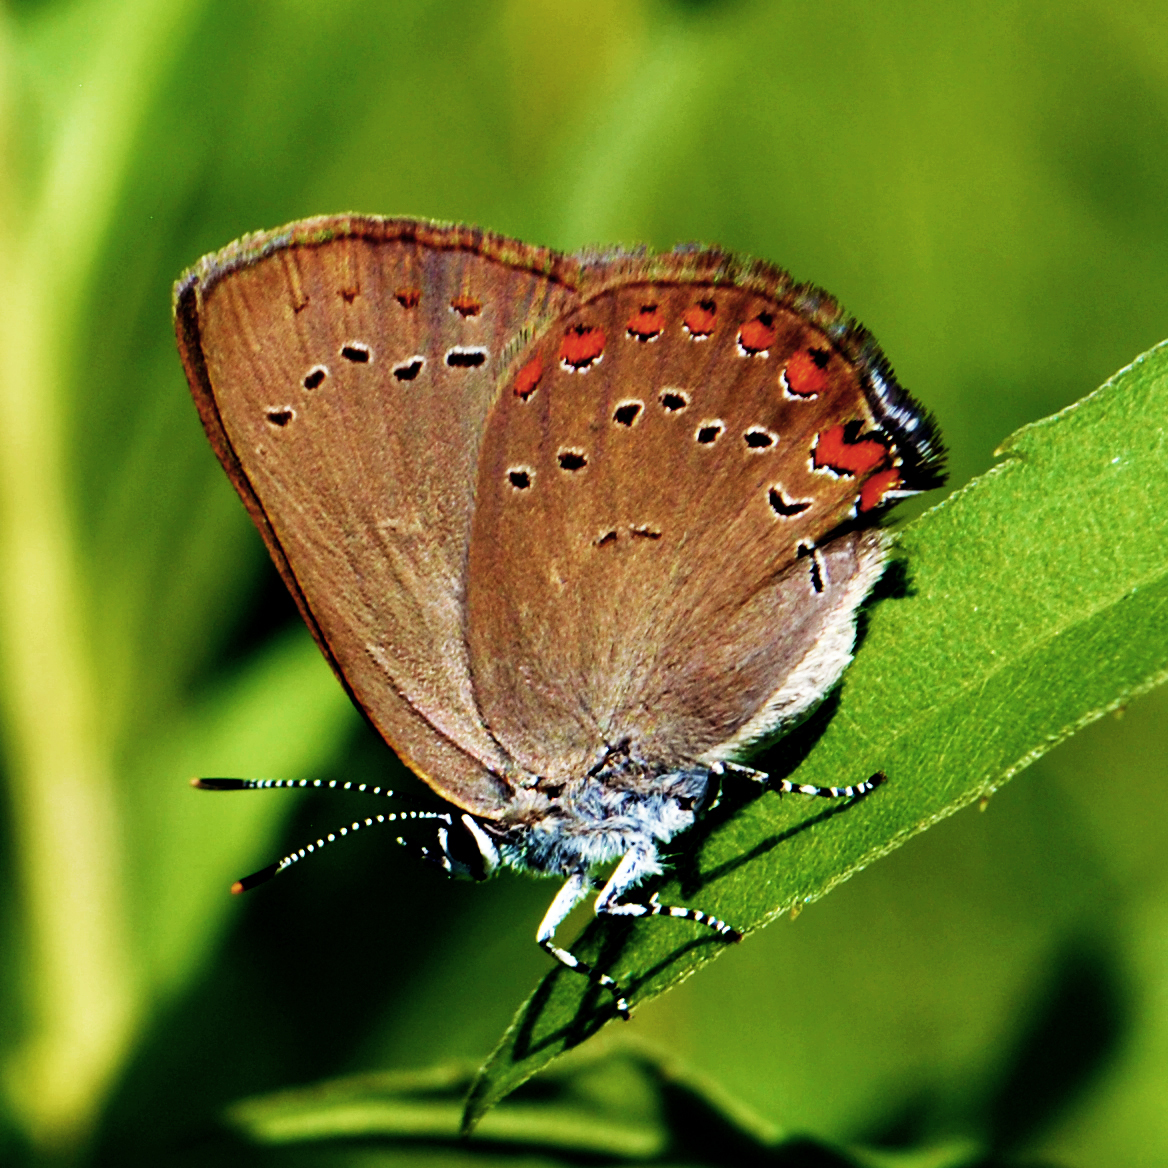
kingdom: Animalia
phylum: Arthropoda
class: Insecta
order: Lepidoptera
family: Lycaenidae
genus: Harkenclenus
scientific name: Harkenclenus titus
